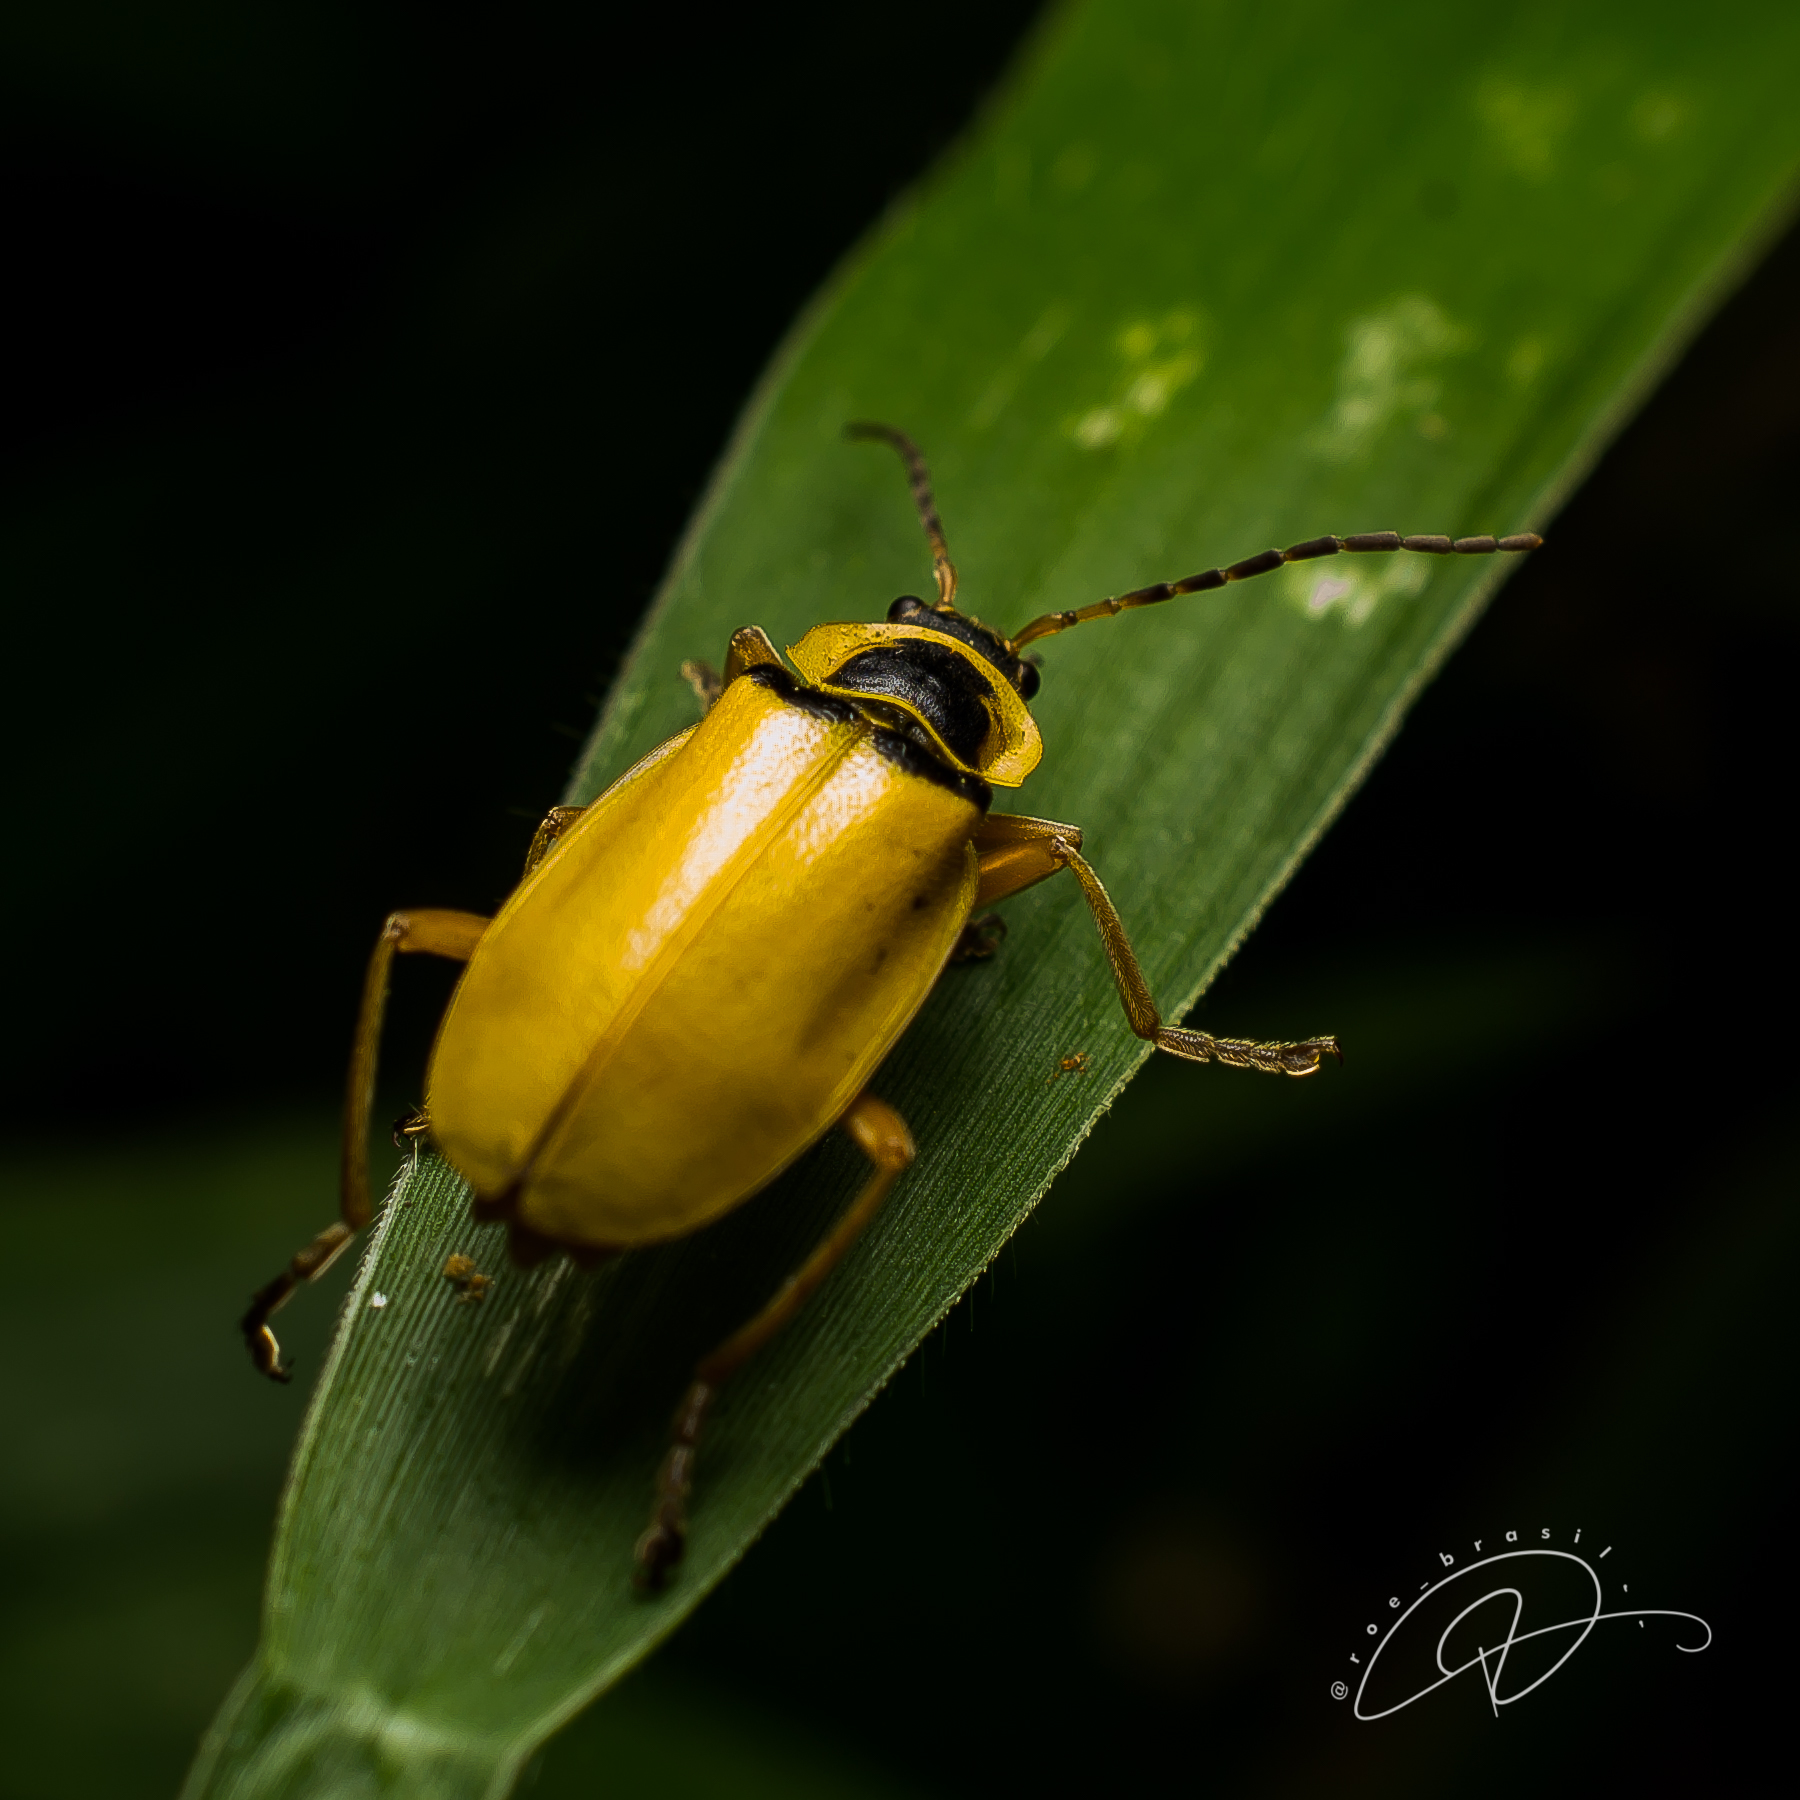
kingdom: Animalia
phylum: Arthropoda
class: Insecta
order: Coleoptera
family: Cantharidae
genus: Chauliognathus
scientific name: Chauliognathus
